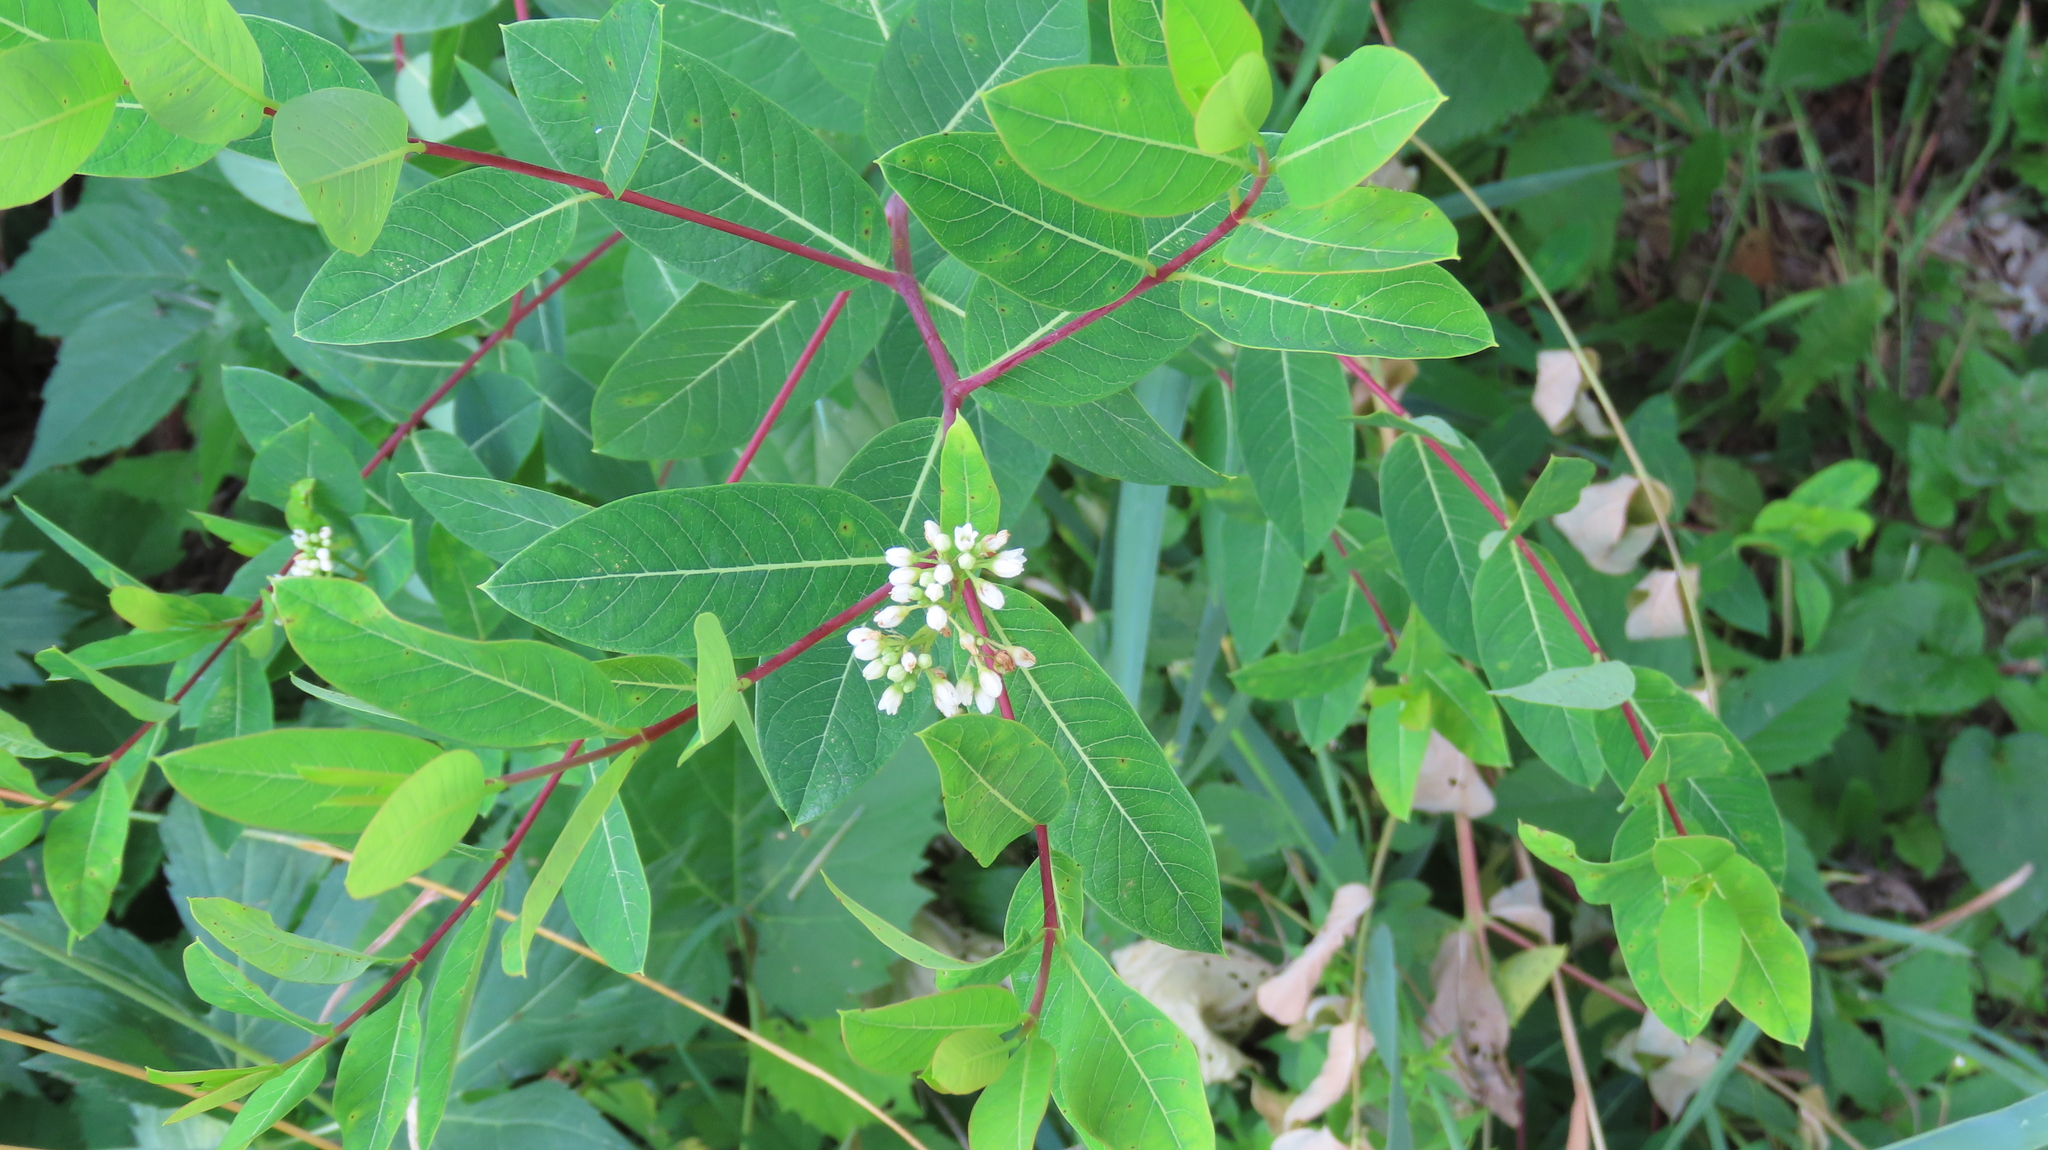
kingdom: Plantae
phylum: Tracheophyta
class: Magnoliopsida
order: Gentianales
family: Apocynaceae
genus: Apocynum
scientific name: Apocynum cannabinum
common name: Hemp dogbane
